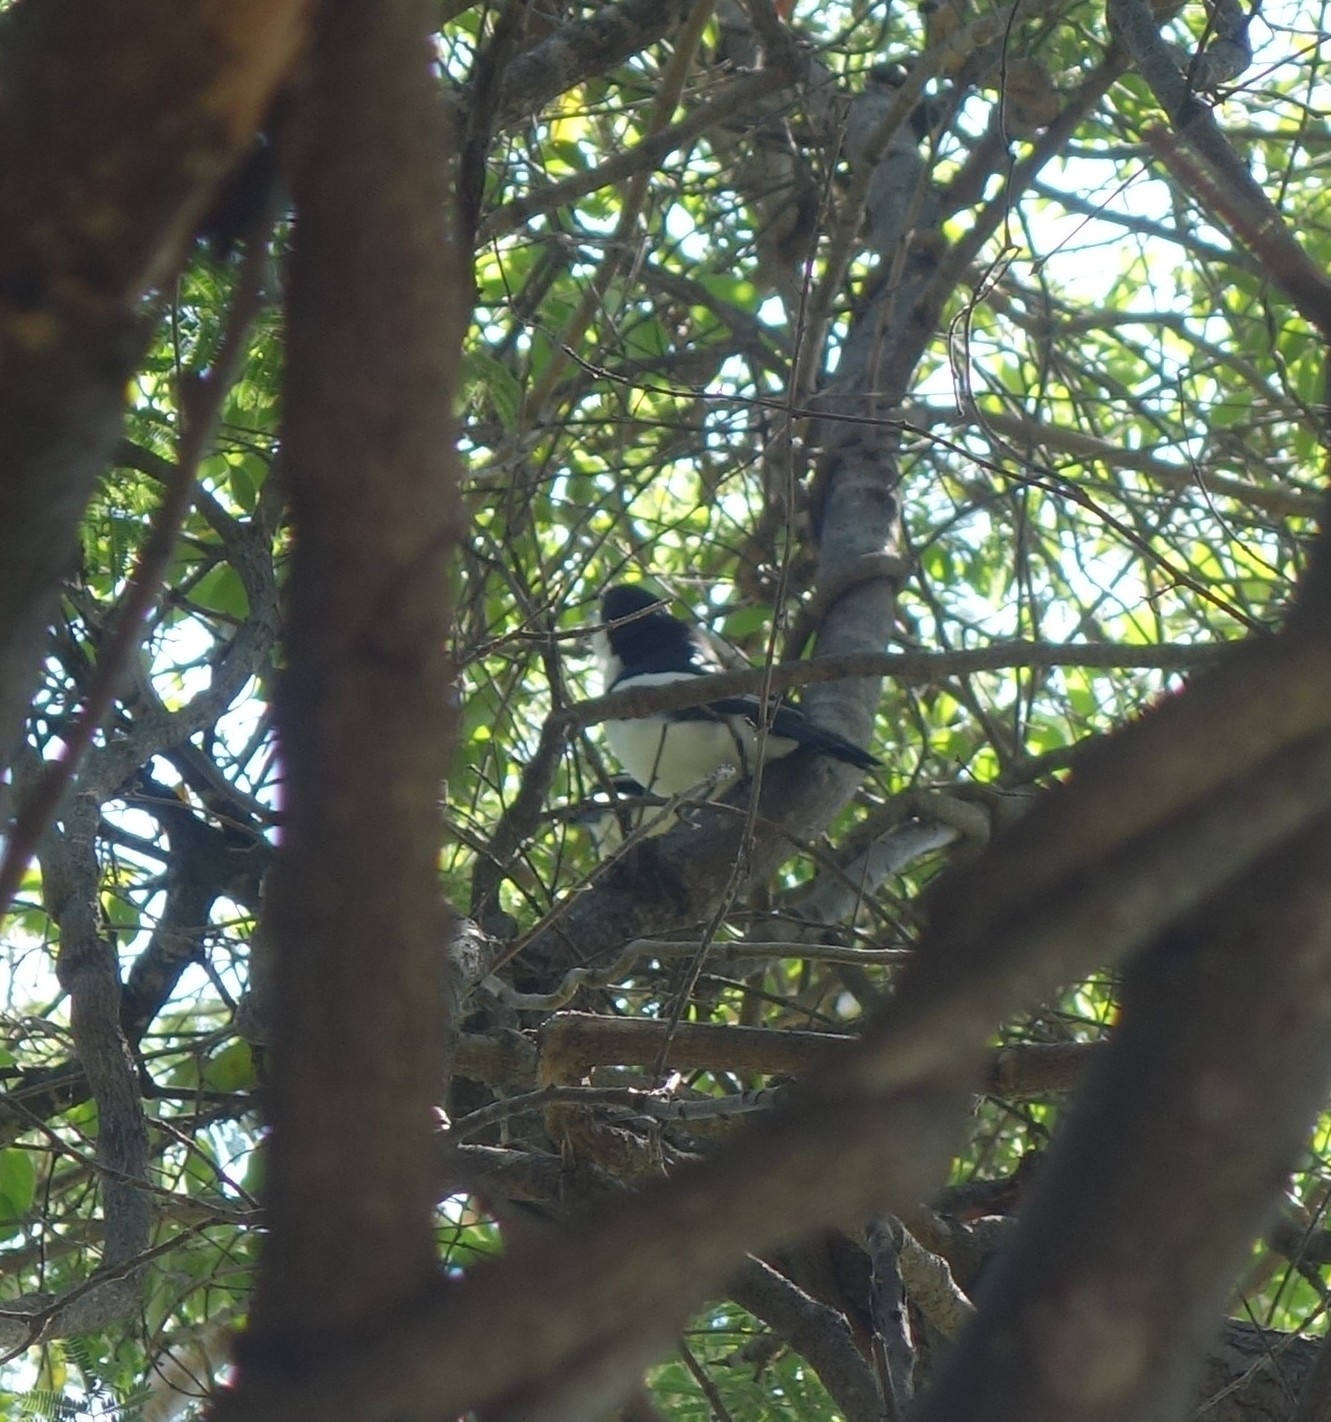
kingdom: Animalia
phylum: Chordata
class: Aves
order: Passeriformes
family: Malaconotidae
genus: Laniarius
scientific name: Laniarius bicolor
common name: Swamp boubou
